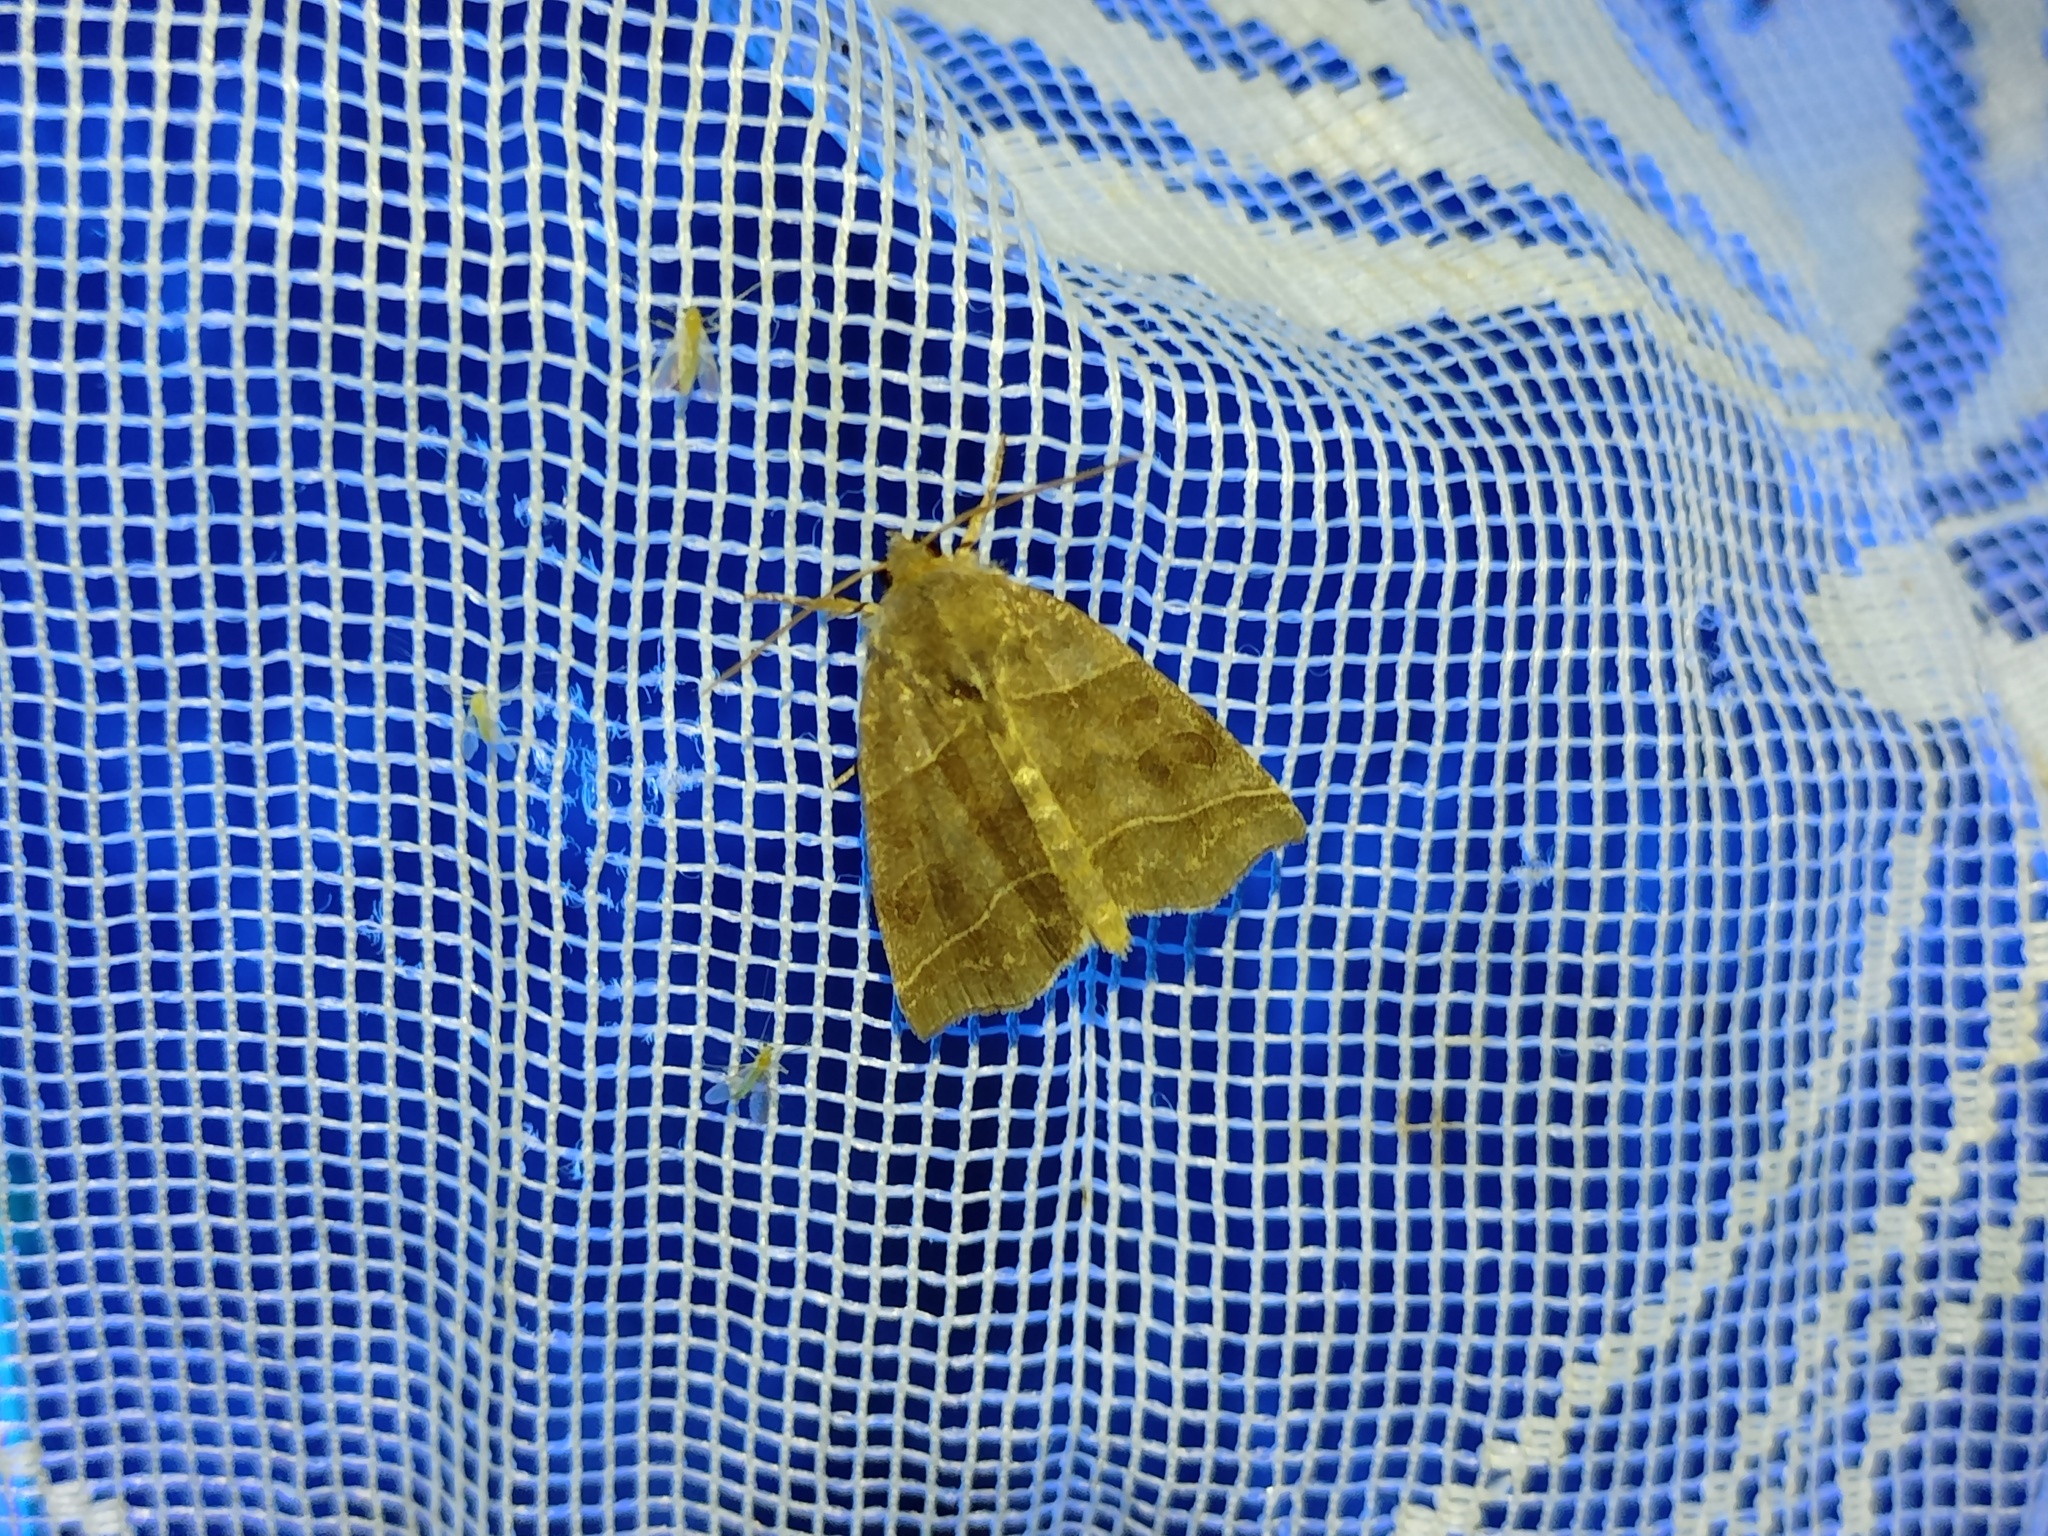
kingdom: Animalia
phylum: Arthropoda
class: Insecta
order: Lepidoptera
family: Noctuidae
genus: Ipimorpha
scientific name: Ipimorpha retusa
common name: Double kidney
